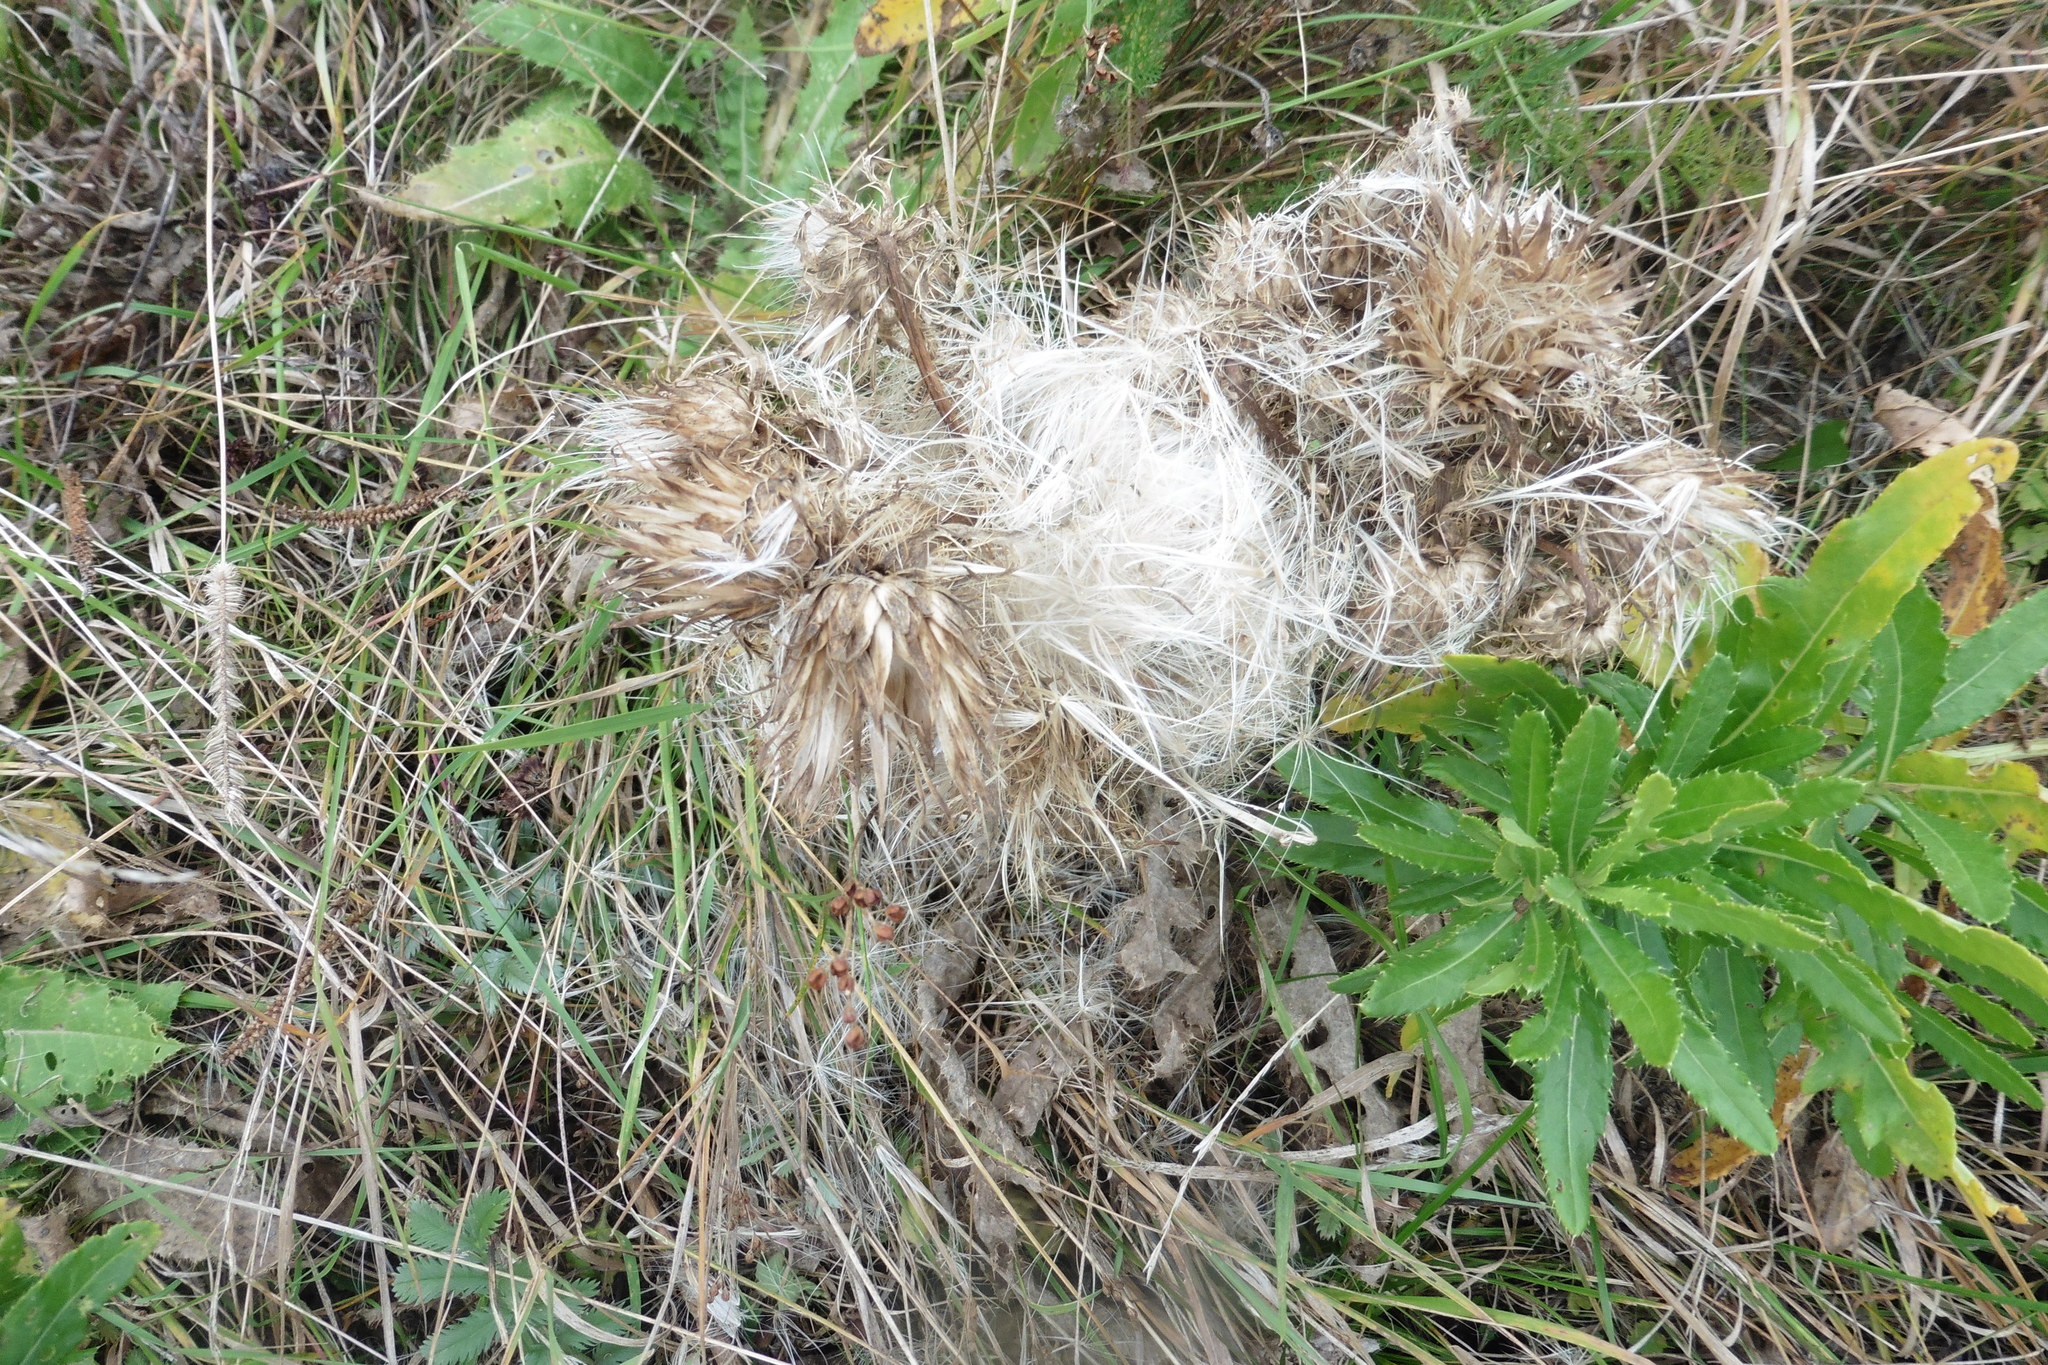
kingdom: Plantae
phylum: Tracheophyta
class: Magnoliopsida
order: Asterales
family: Asteraceae
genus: Cirsium
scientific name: Cirsium esculentum
